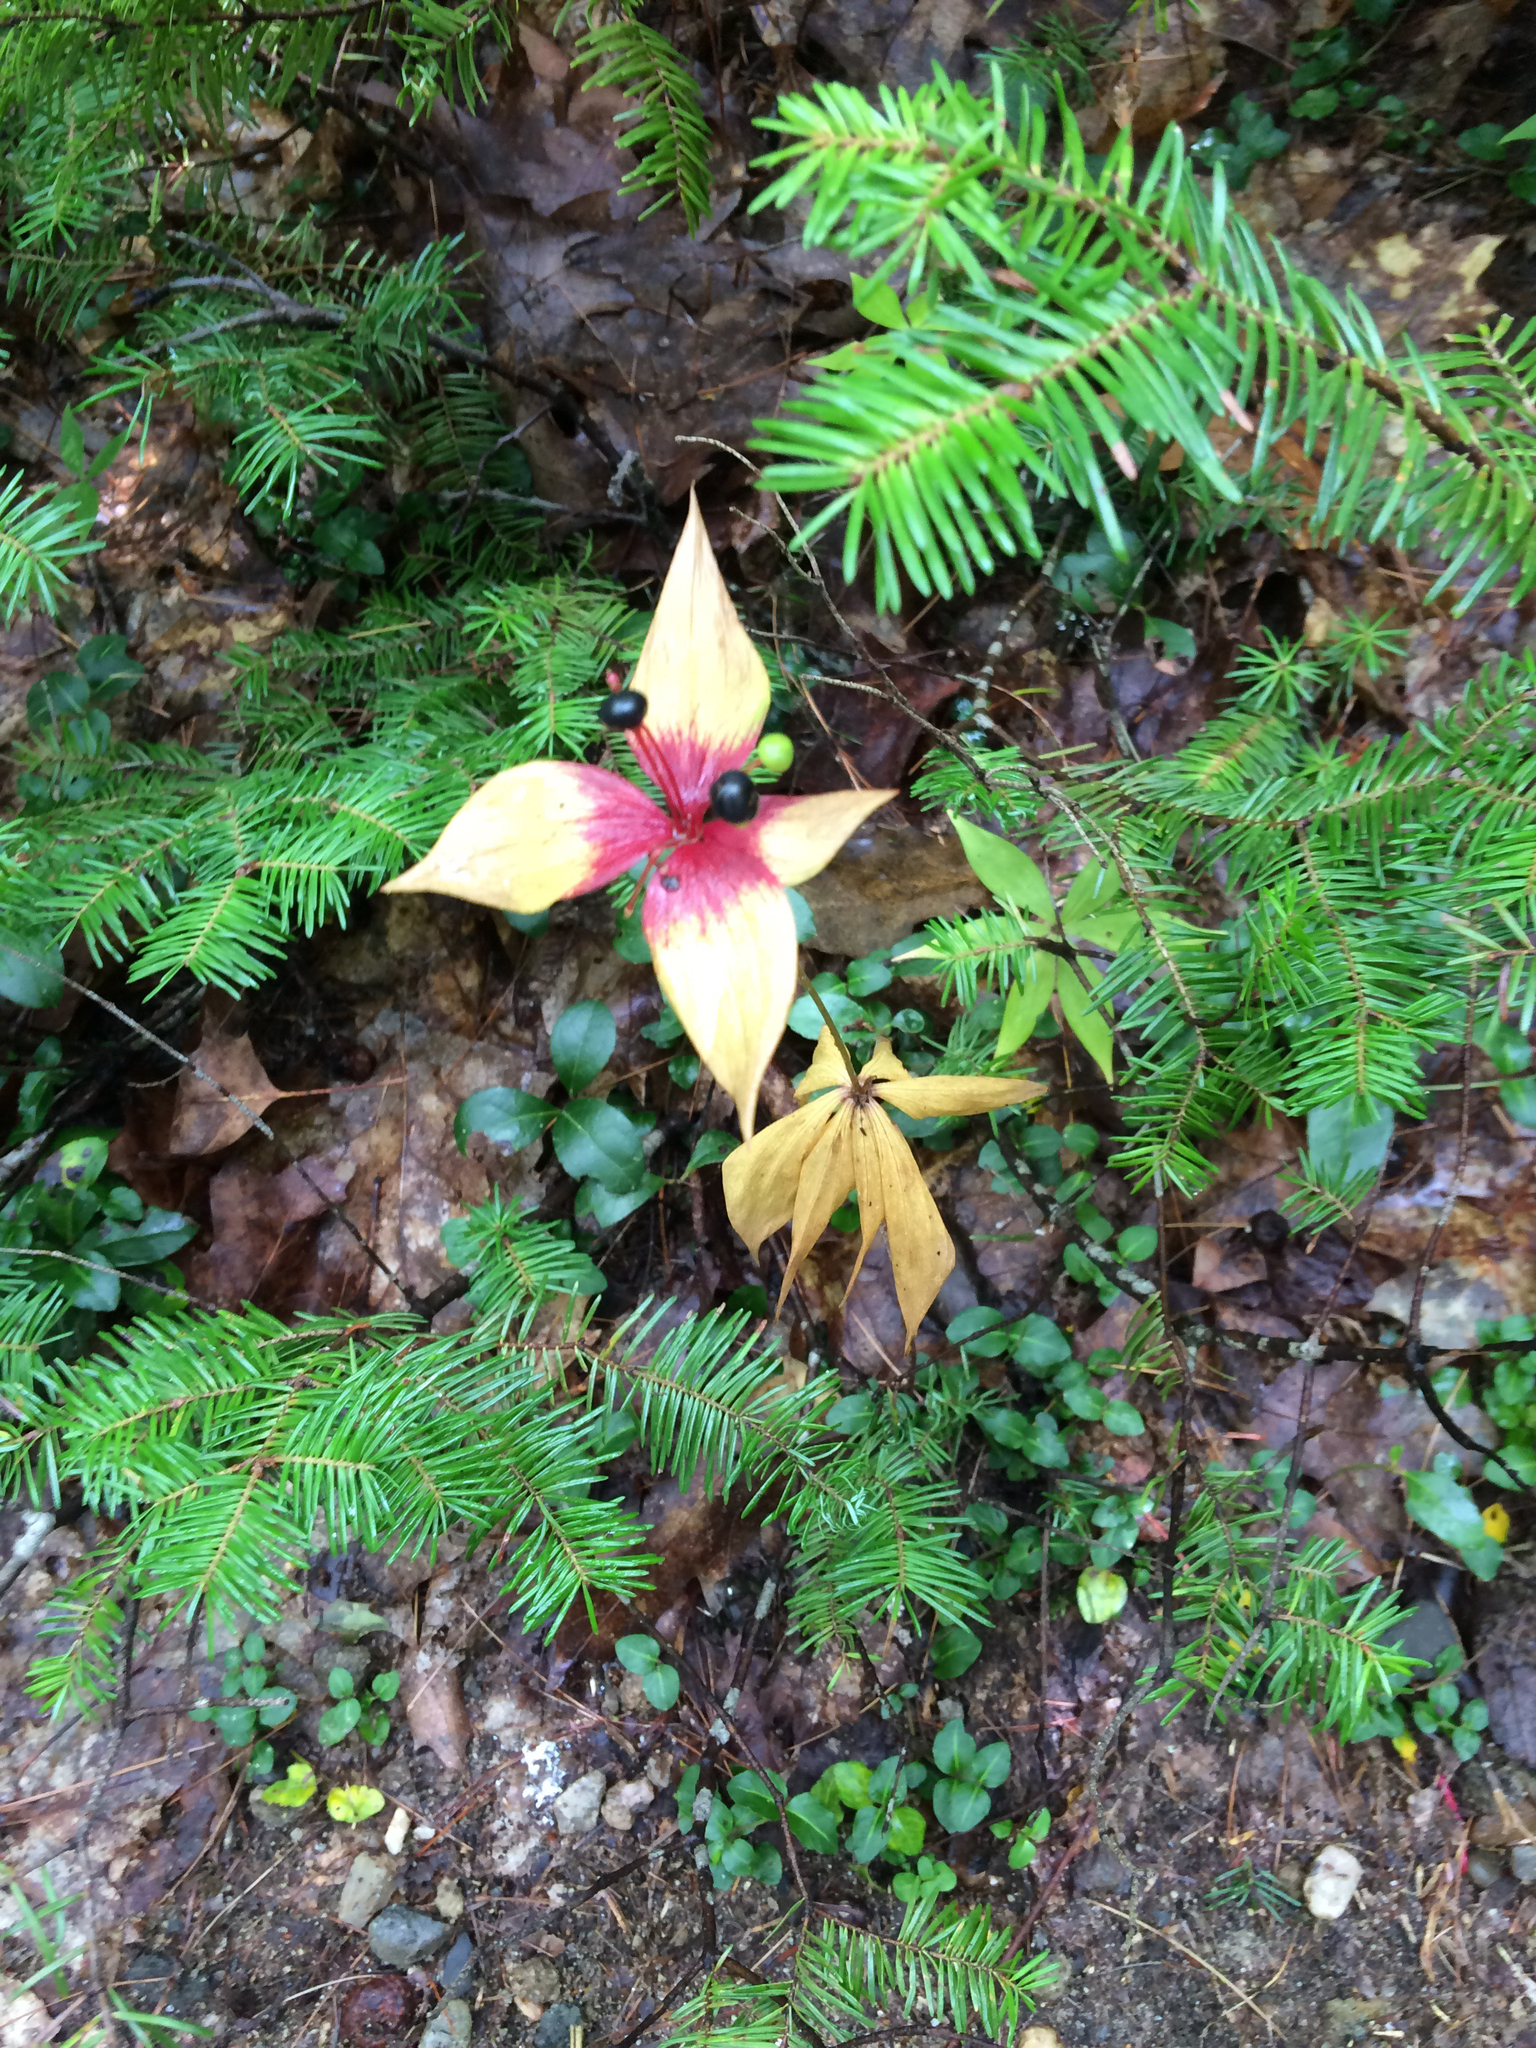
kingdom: Plantae
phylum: Tracheophyta
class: Liliopsida
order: Liliales
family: Liliaceae
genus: Medeola
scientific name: Medeola virginiana
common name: Indian cucumber-root
